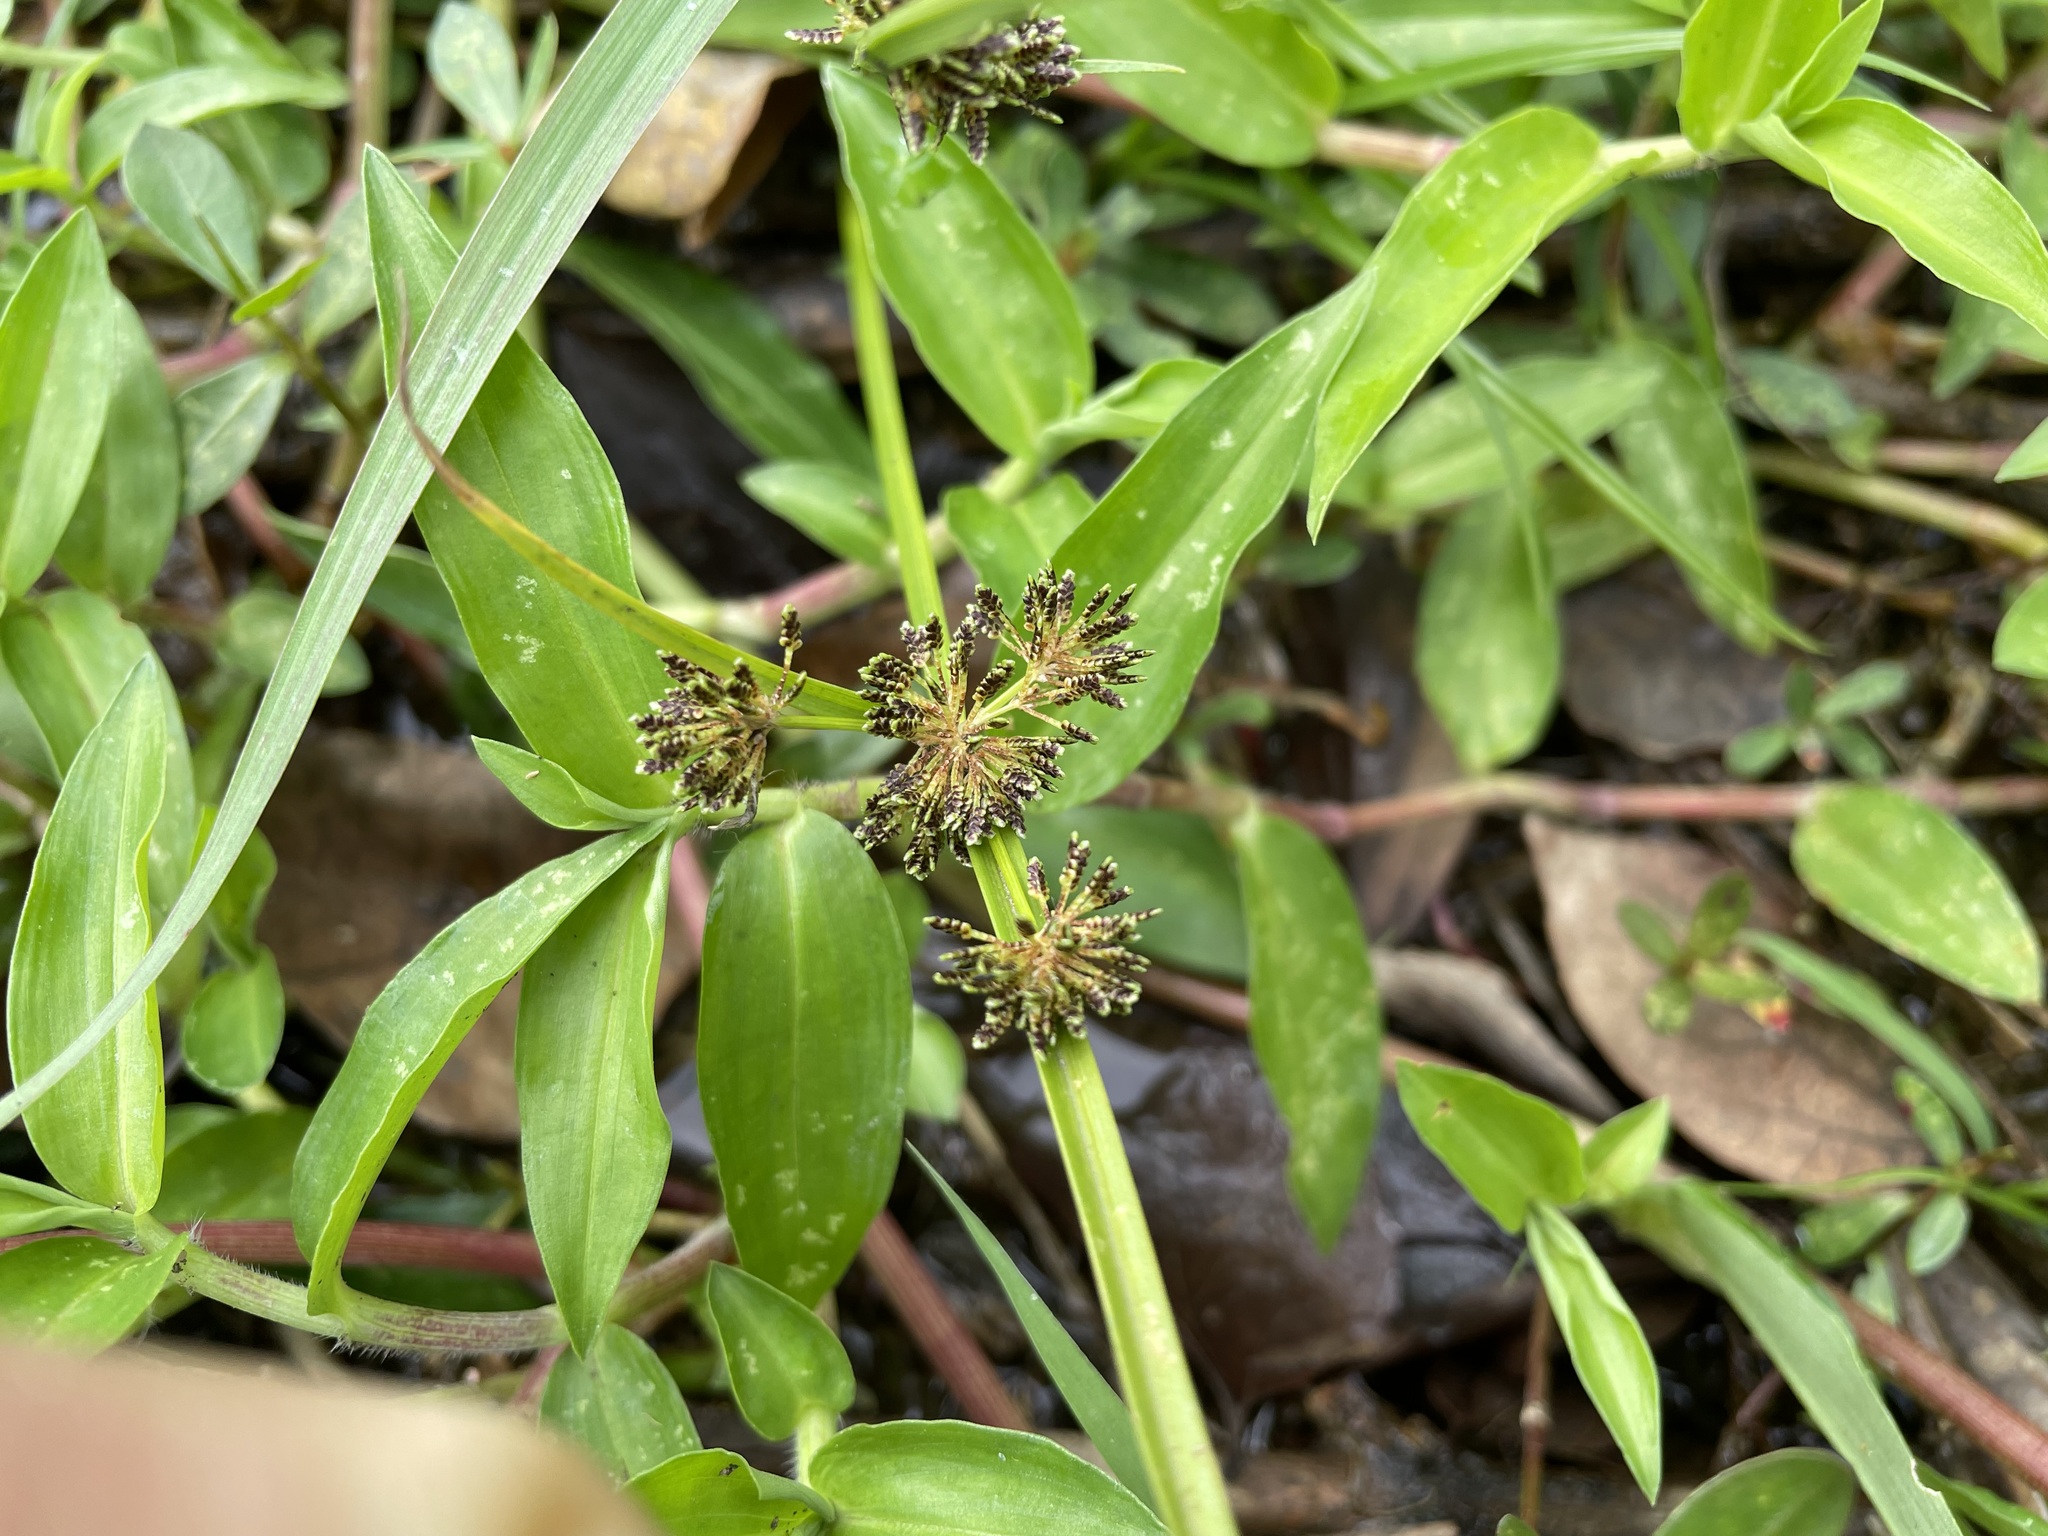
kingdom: Plantae
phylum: Tracheophyta
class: Liliopsida
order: Poales
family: Cyperaceae
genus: Cyperus
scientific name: Cyperus difformis
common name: Variable flatsedge
